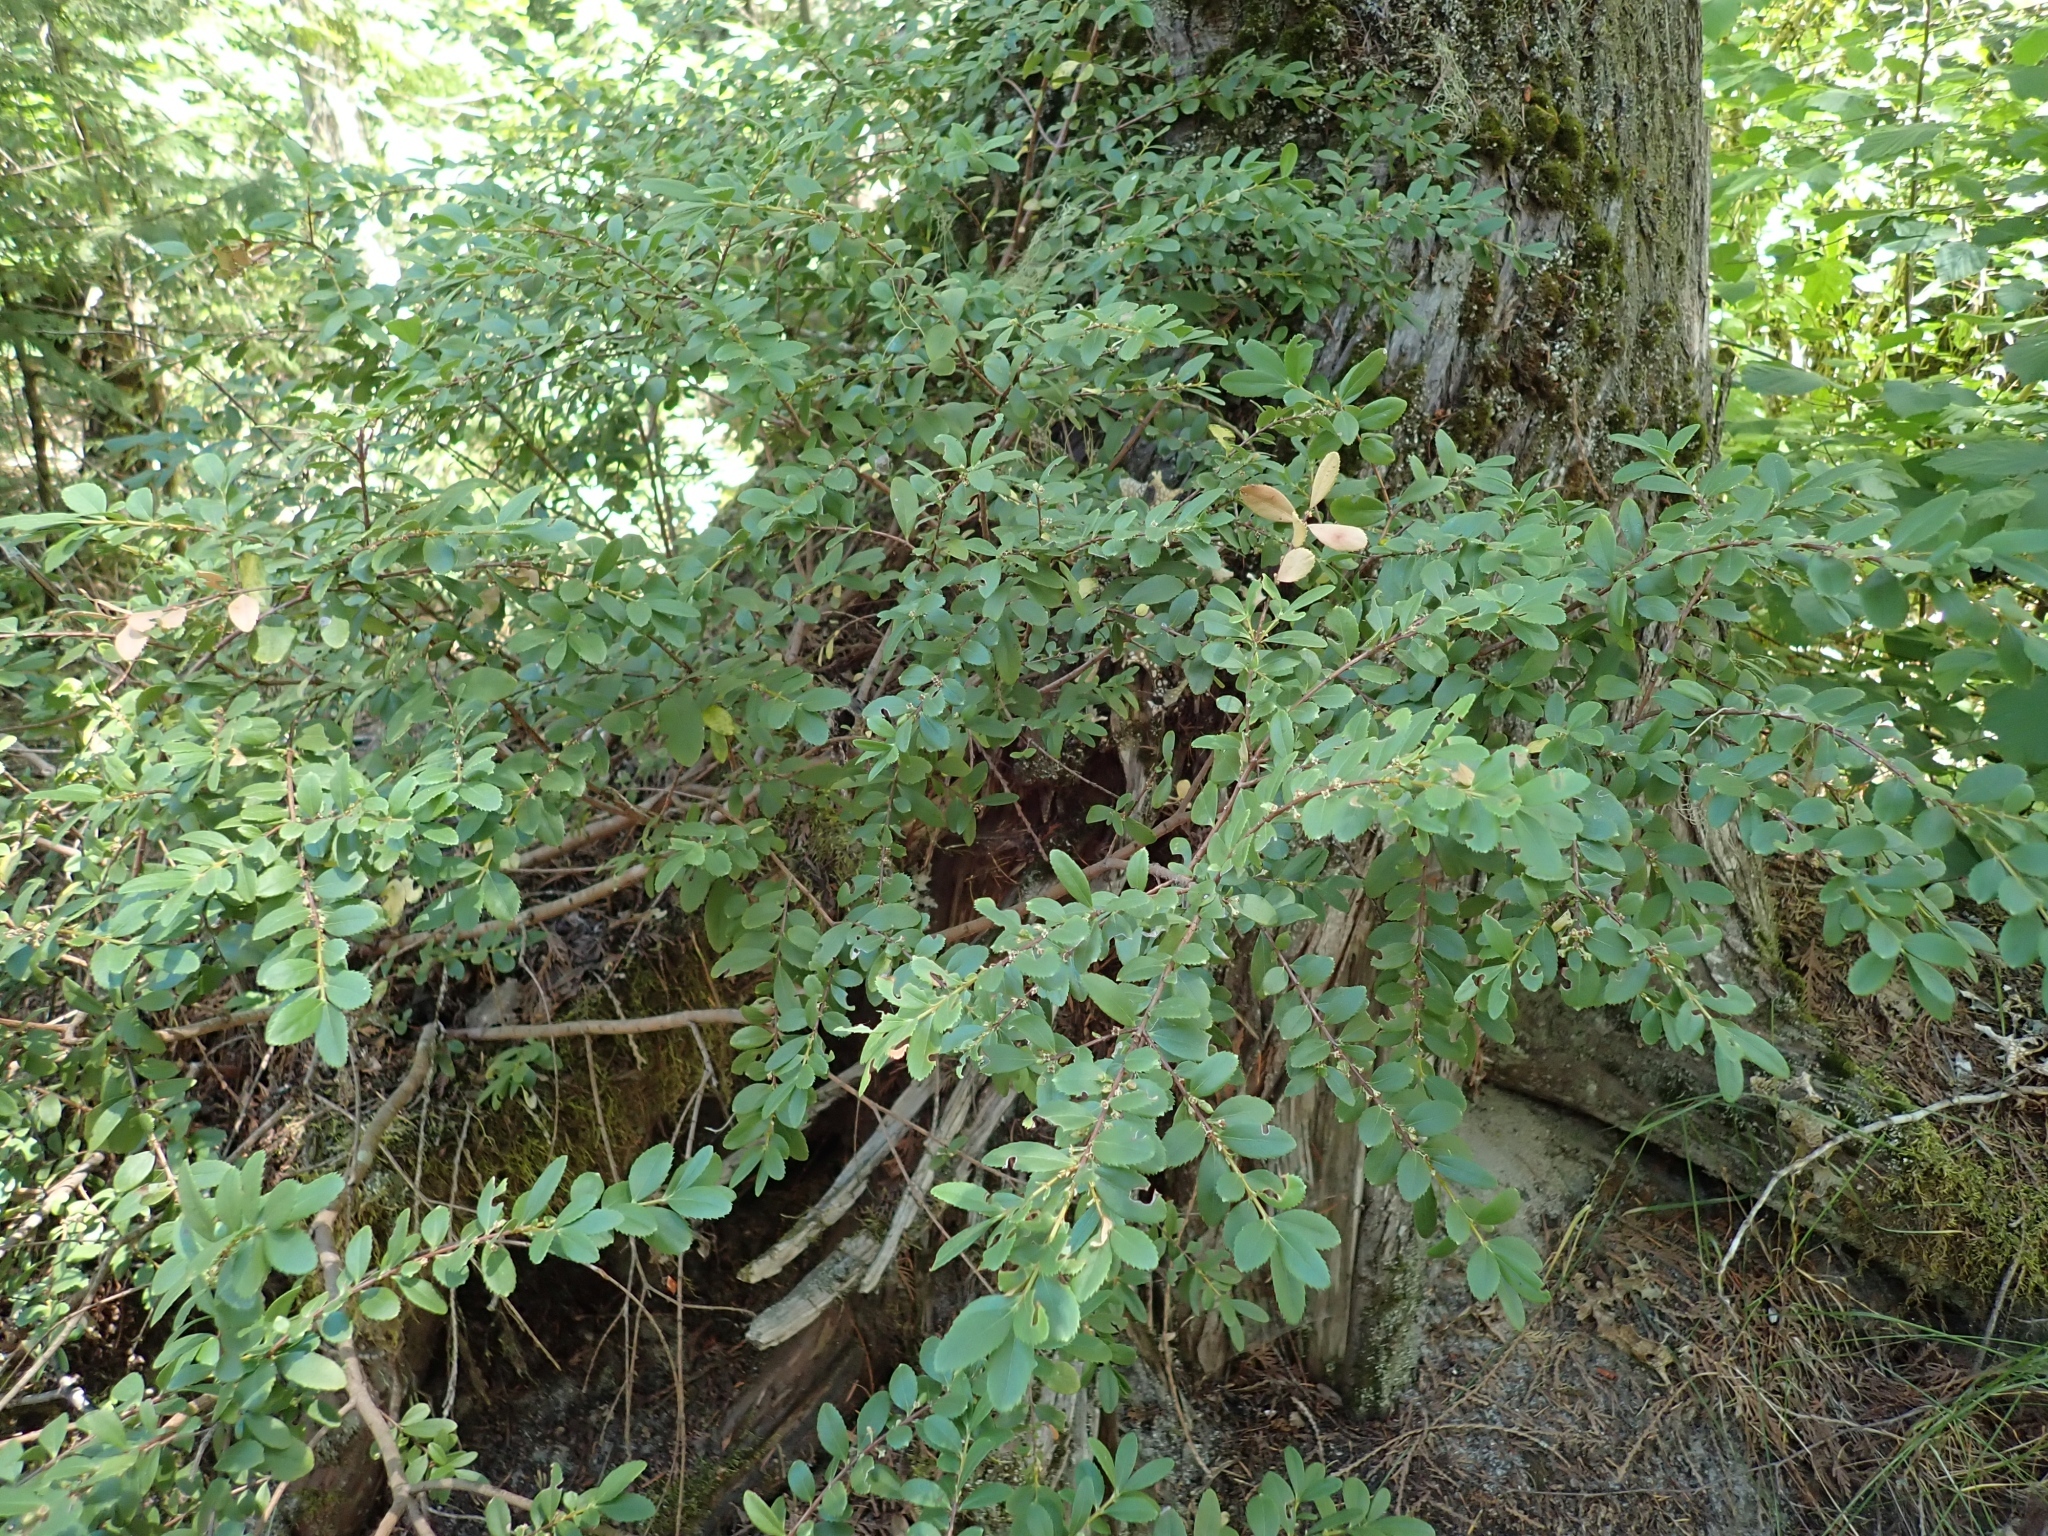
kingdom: Plantae
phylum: Tracheophyta
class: Magnoliopsida
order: Celastrales
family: Celastraceae
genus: Paxistima
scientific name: Paxistima myrsinites
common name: Mountain-lover
